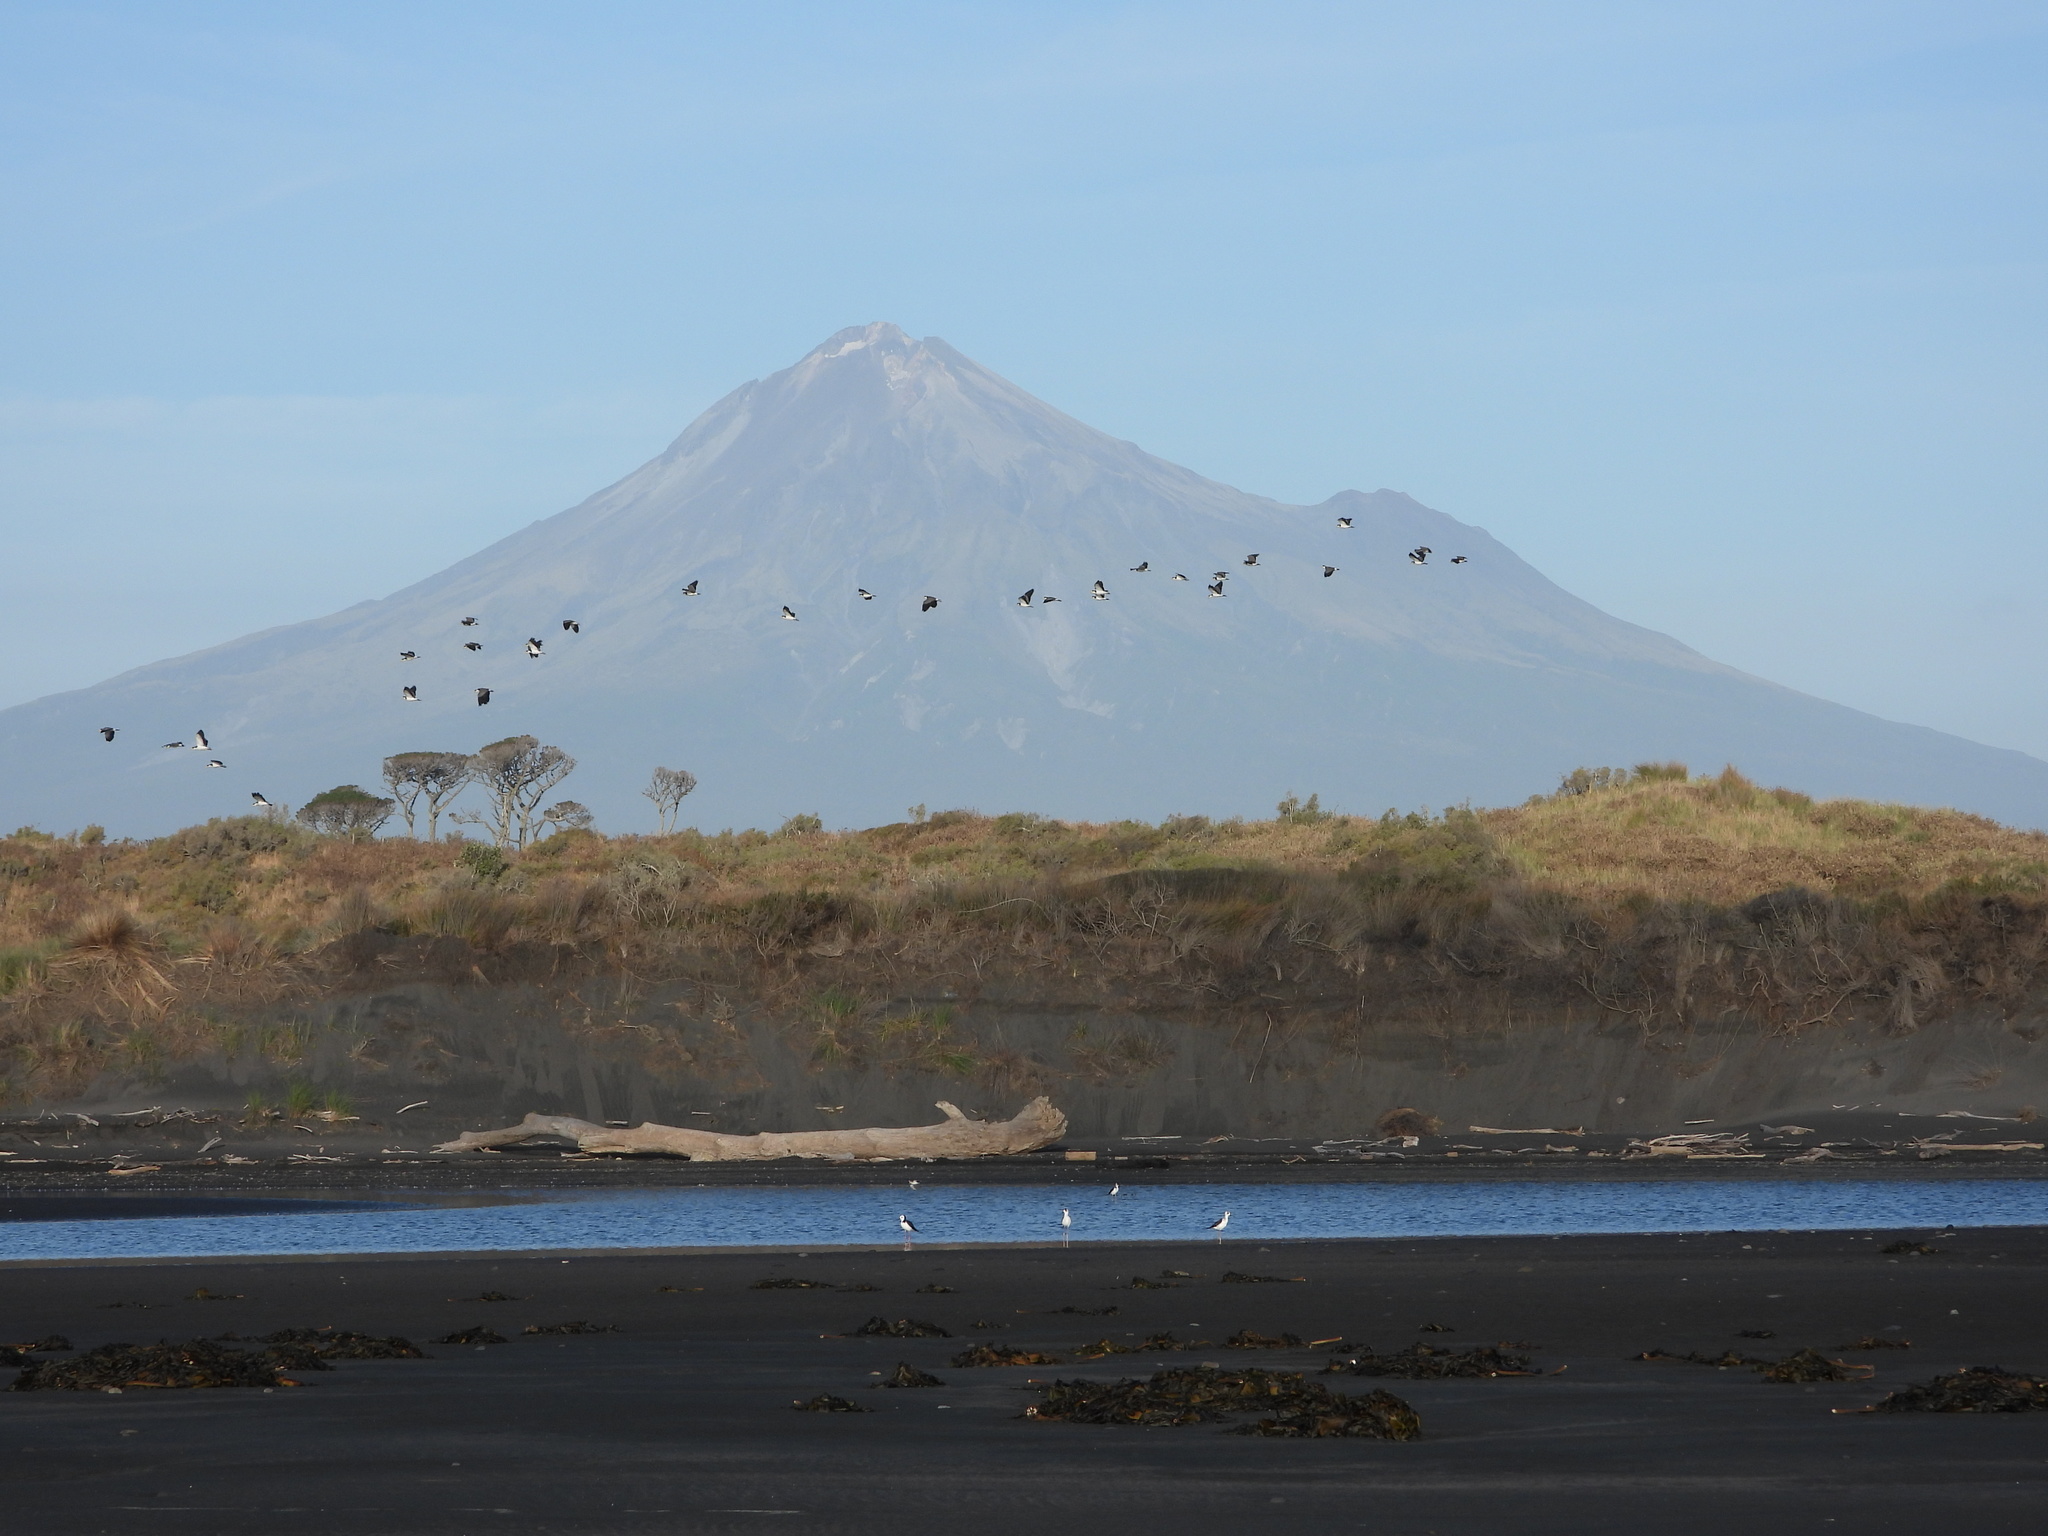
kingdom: Animalia
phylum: Chordata
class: Aves
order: Charadriiformes
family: Recurvirostridae
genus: Himantopus
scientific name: Himantopus leucocephalus
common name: White-headed stilt
